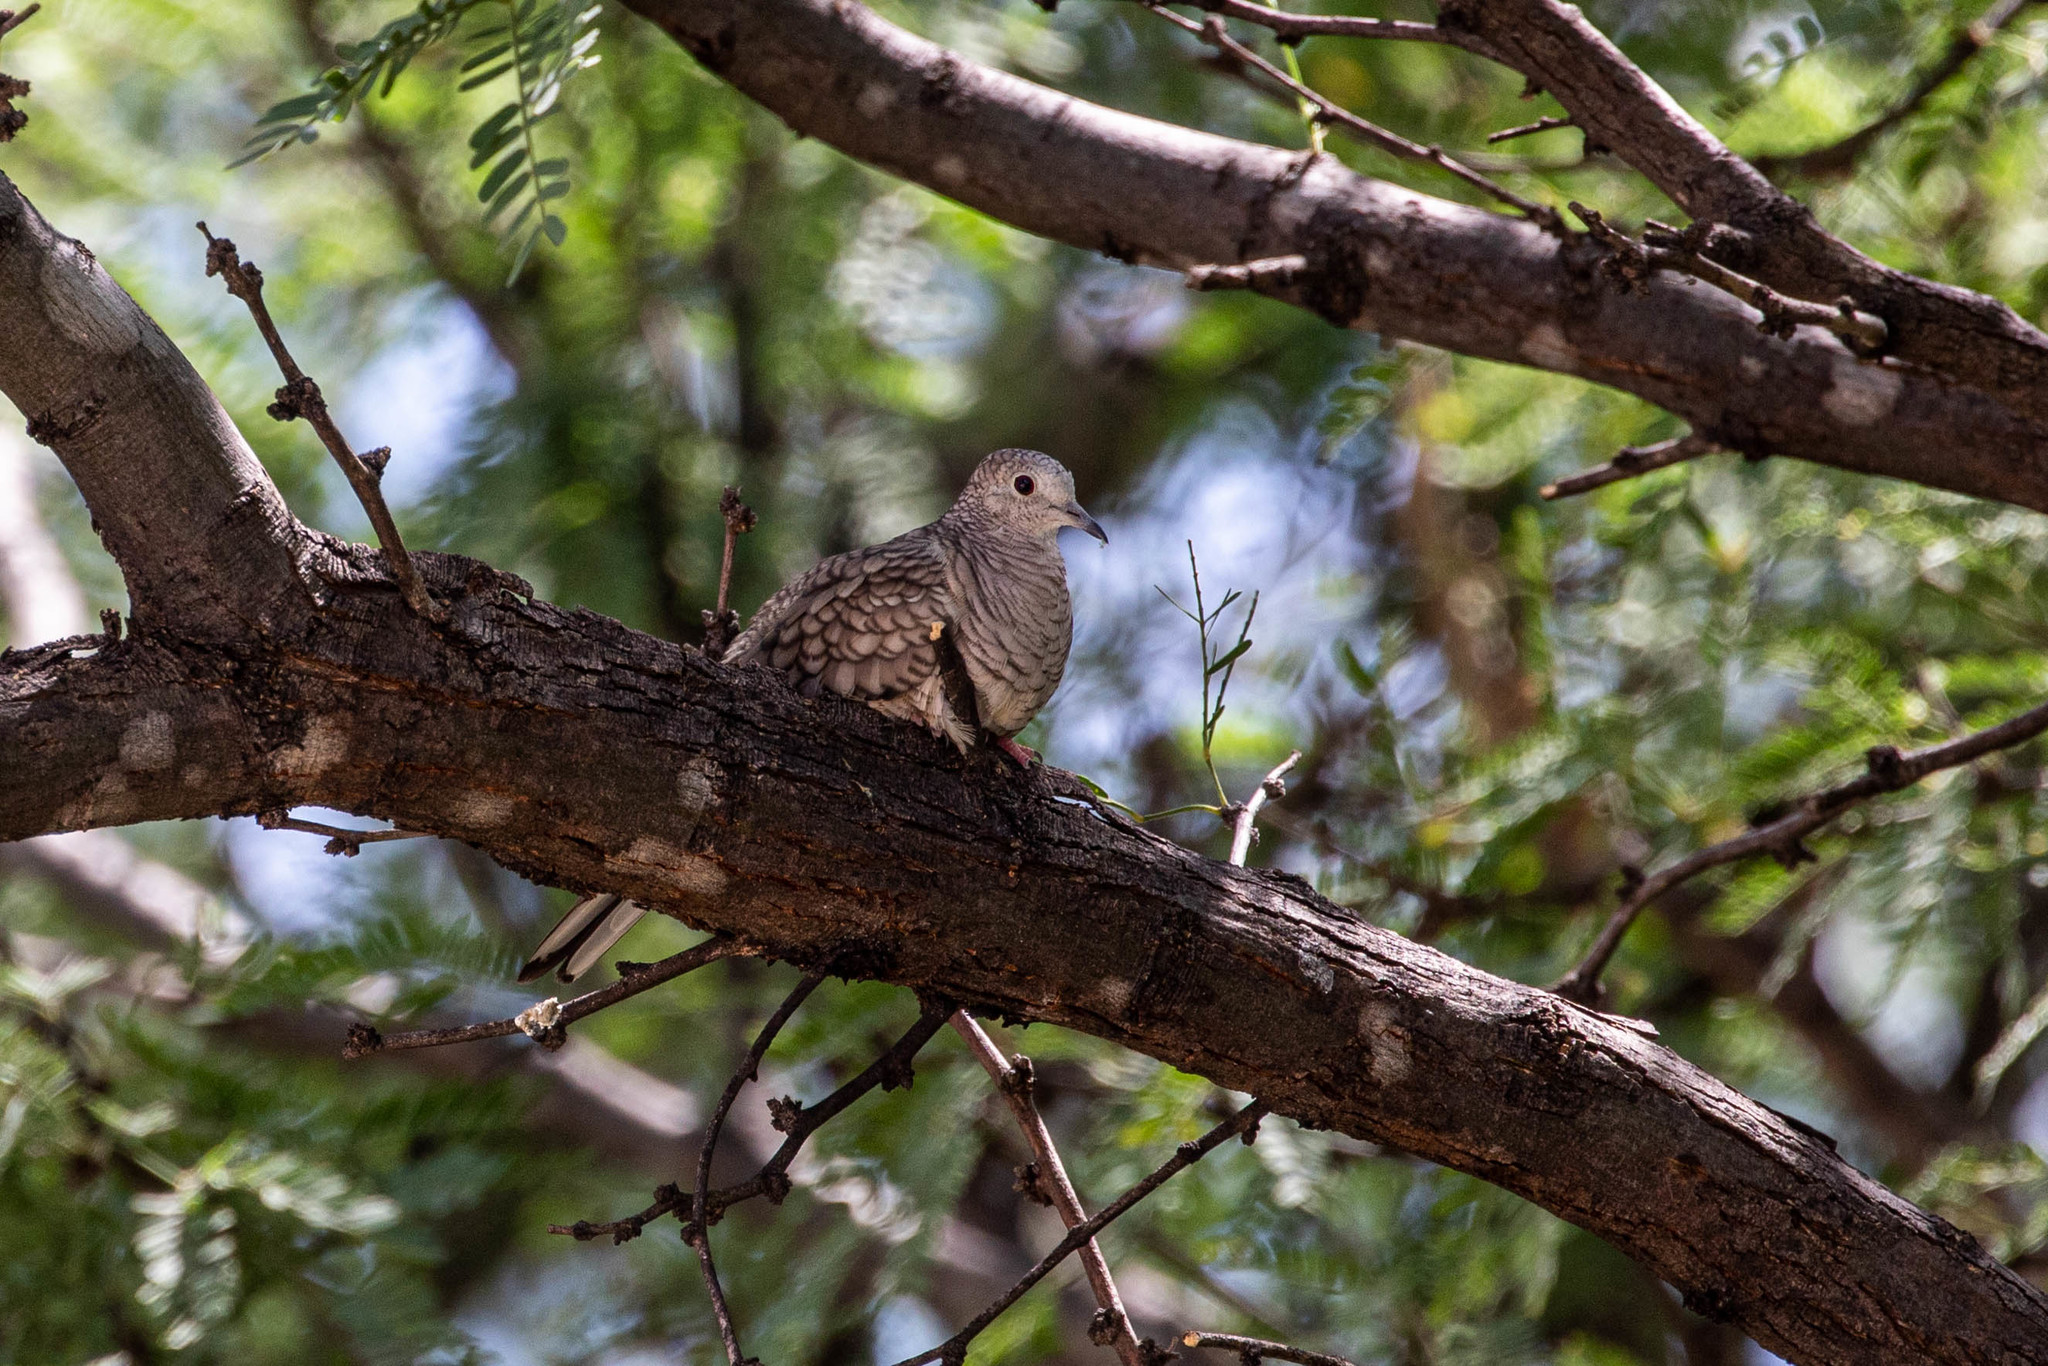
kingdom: Animalia
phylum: Chordata
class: Aves
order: Columbiformes
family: Columbidae
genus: Columbina
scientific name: Columbina inca
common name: Inca dove
